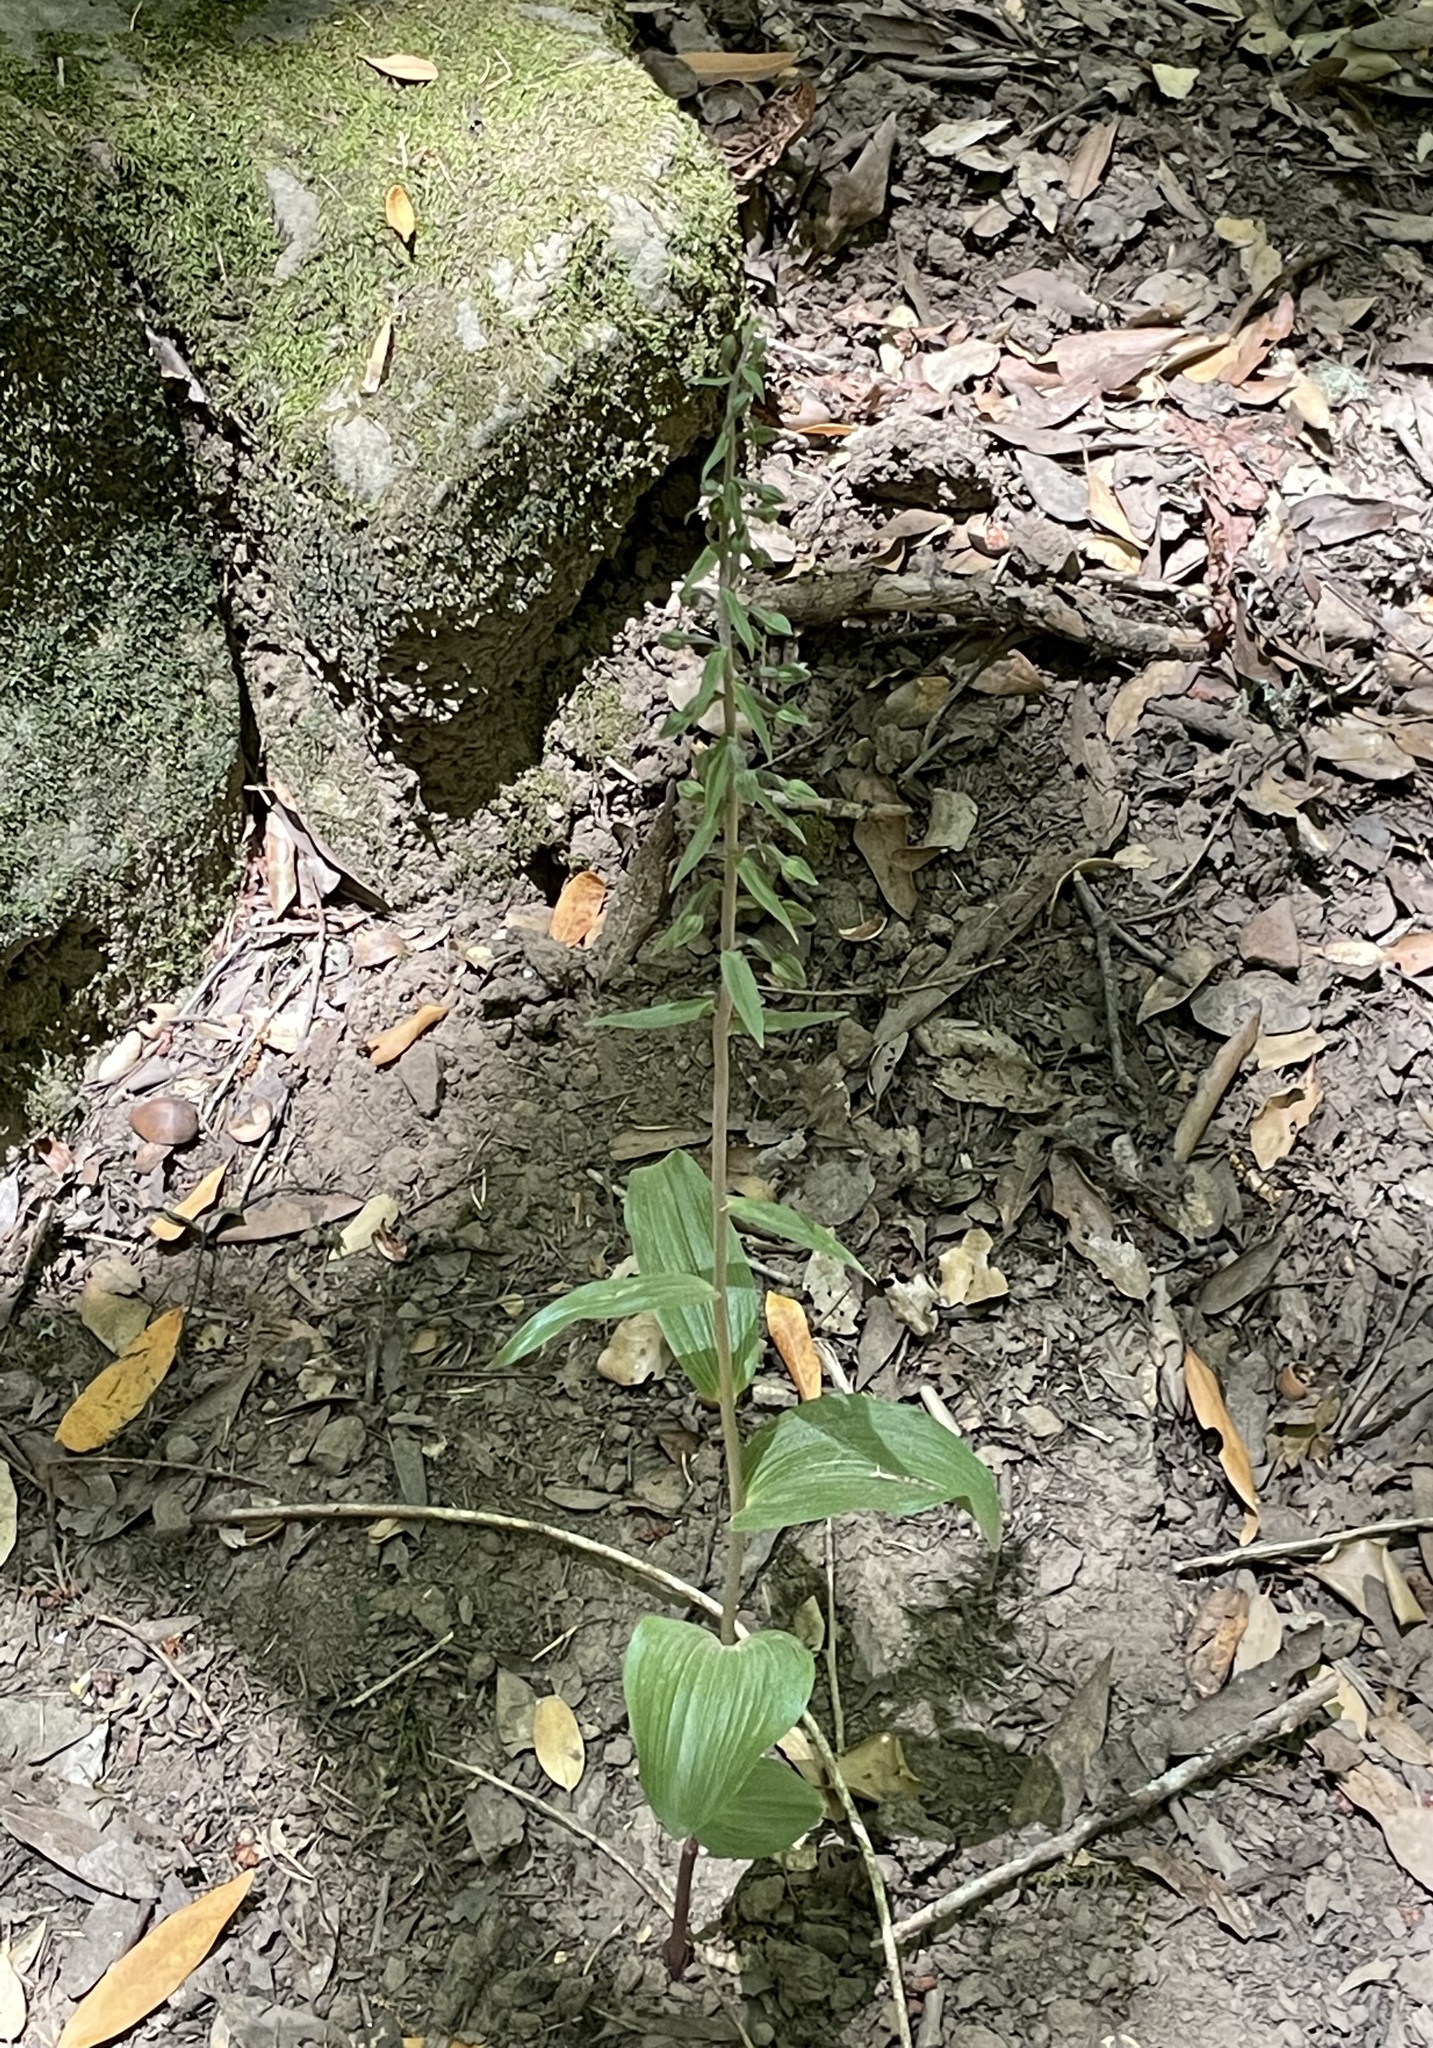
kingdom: Plantae
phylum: Tracheophyta
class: Liliopsida
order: Asparagales
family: Orchidaceae
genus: Epipactis
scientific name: Epipactis helleborine
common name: Broad-leaved helleborine
